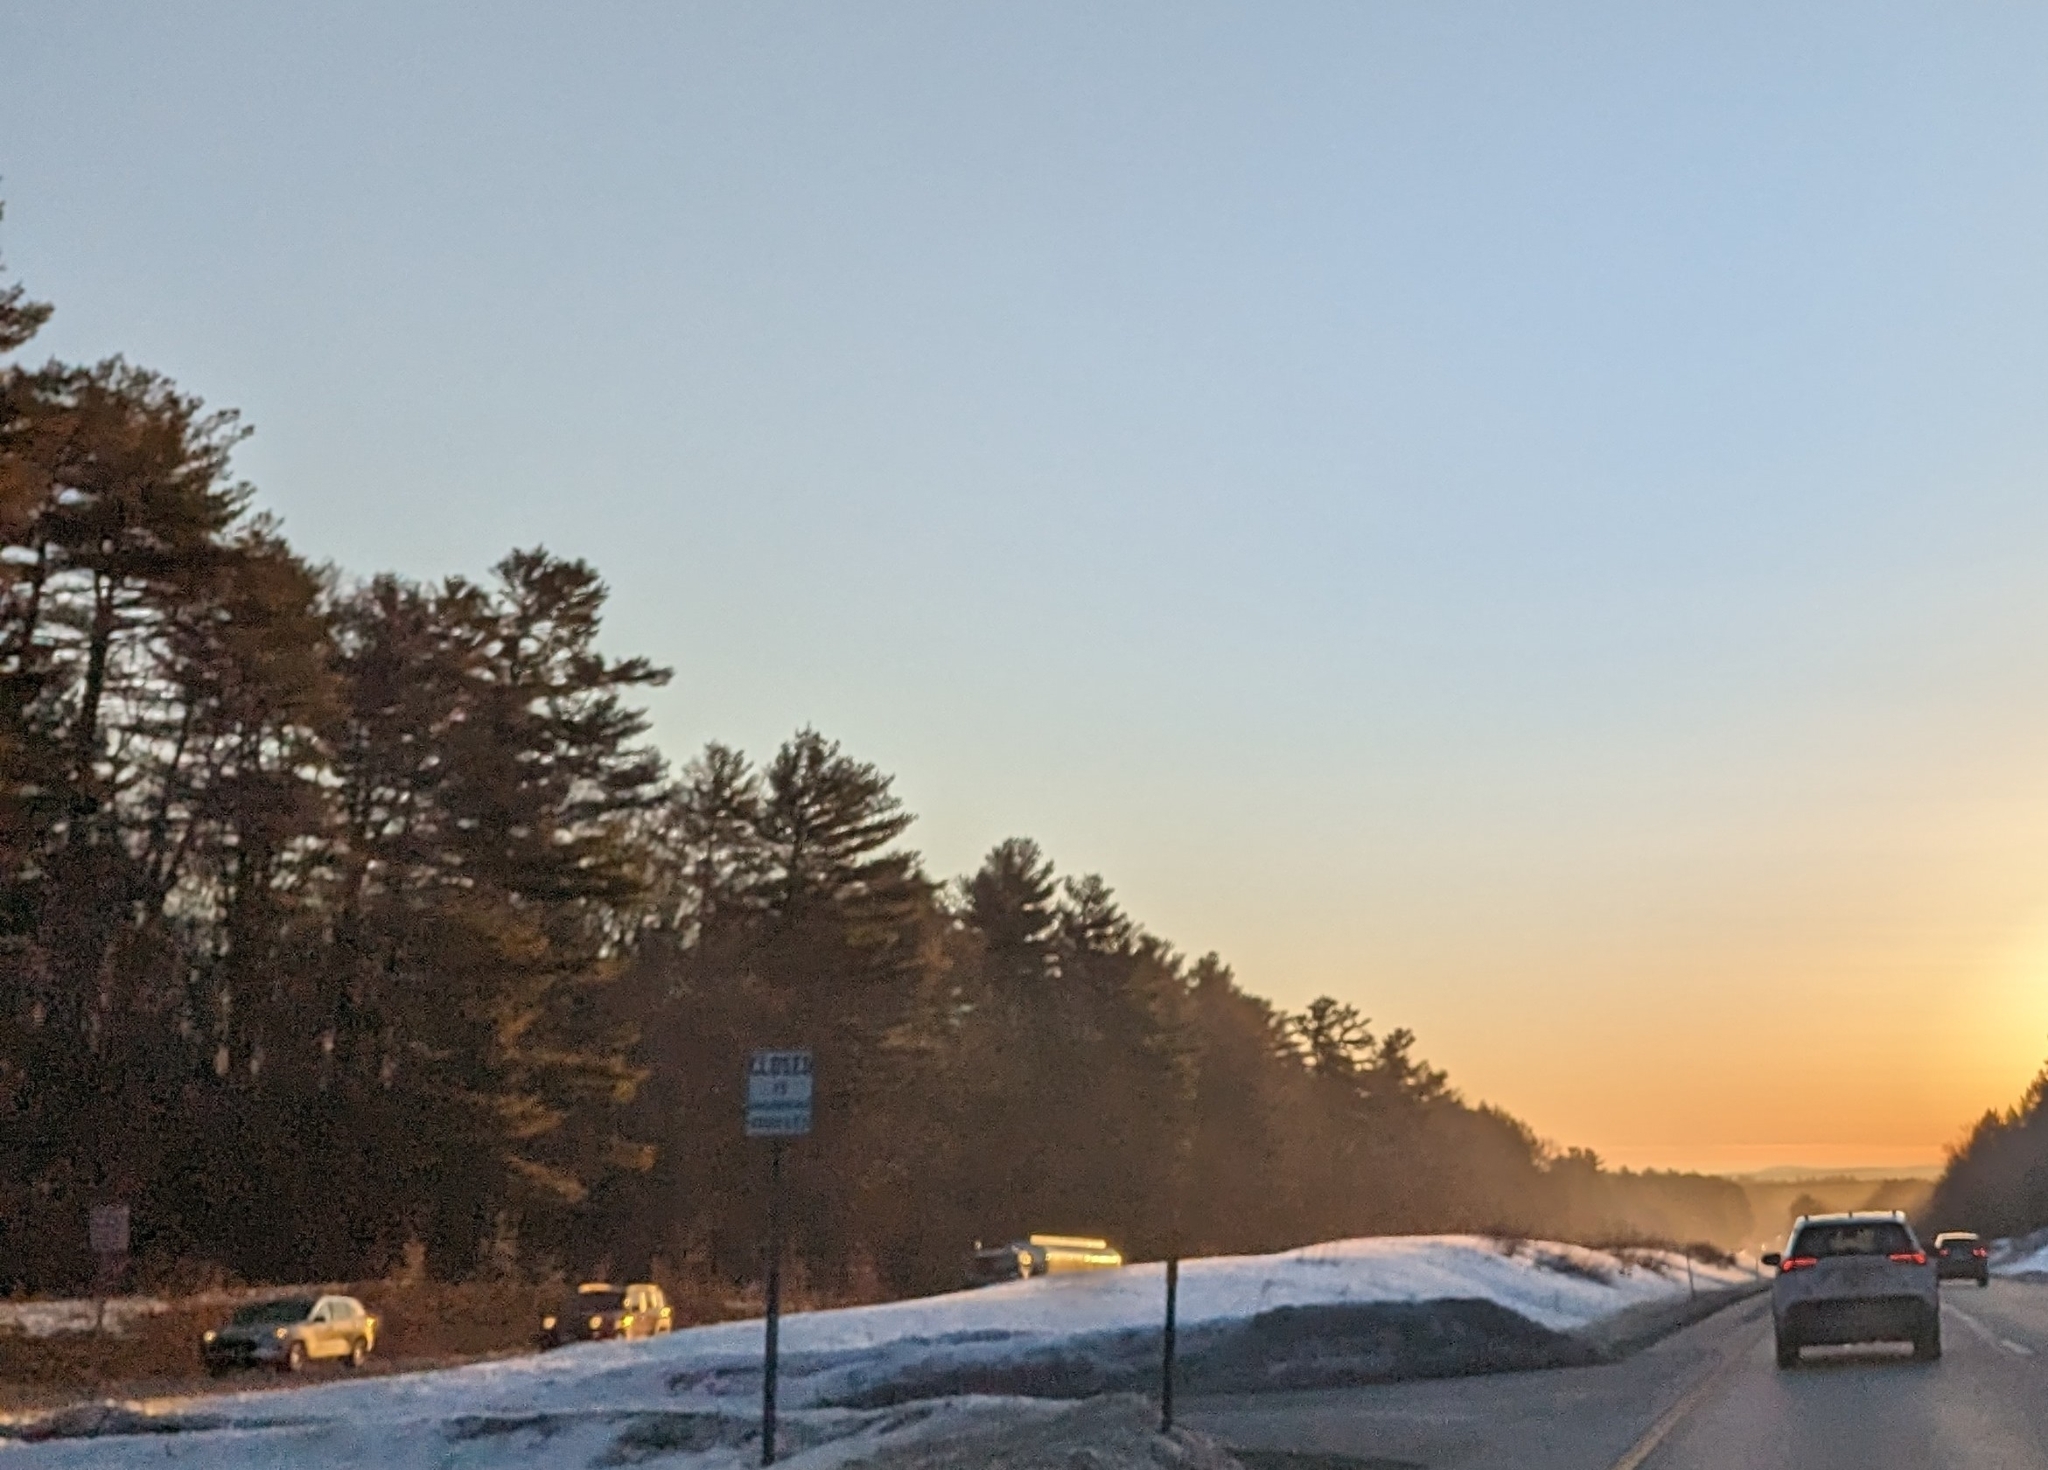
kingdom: Plantae
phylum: Tracheophyta
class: Pinopsida
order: Pinales
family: Pinaceae
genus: Pinus
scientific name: Pinus strobus
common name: Weymouth pine
